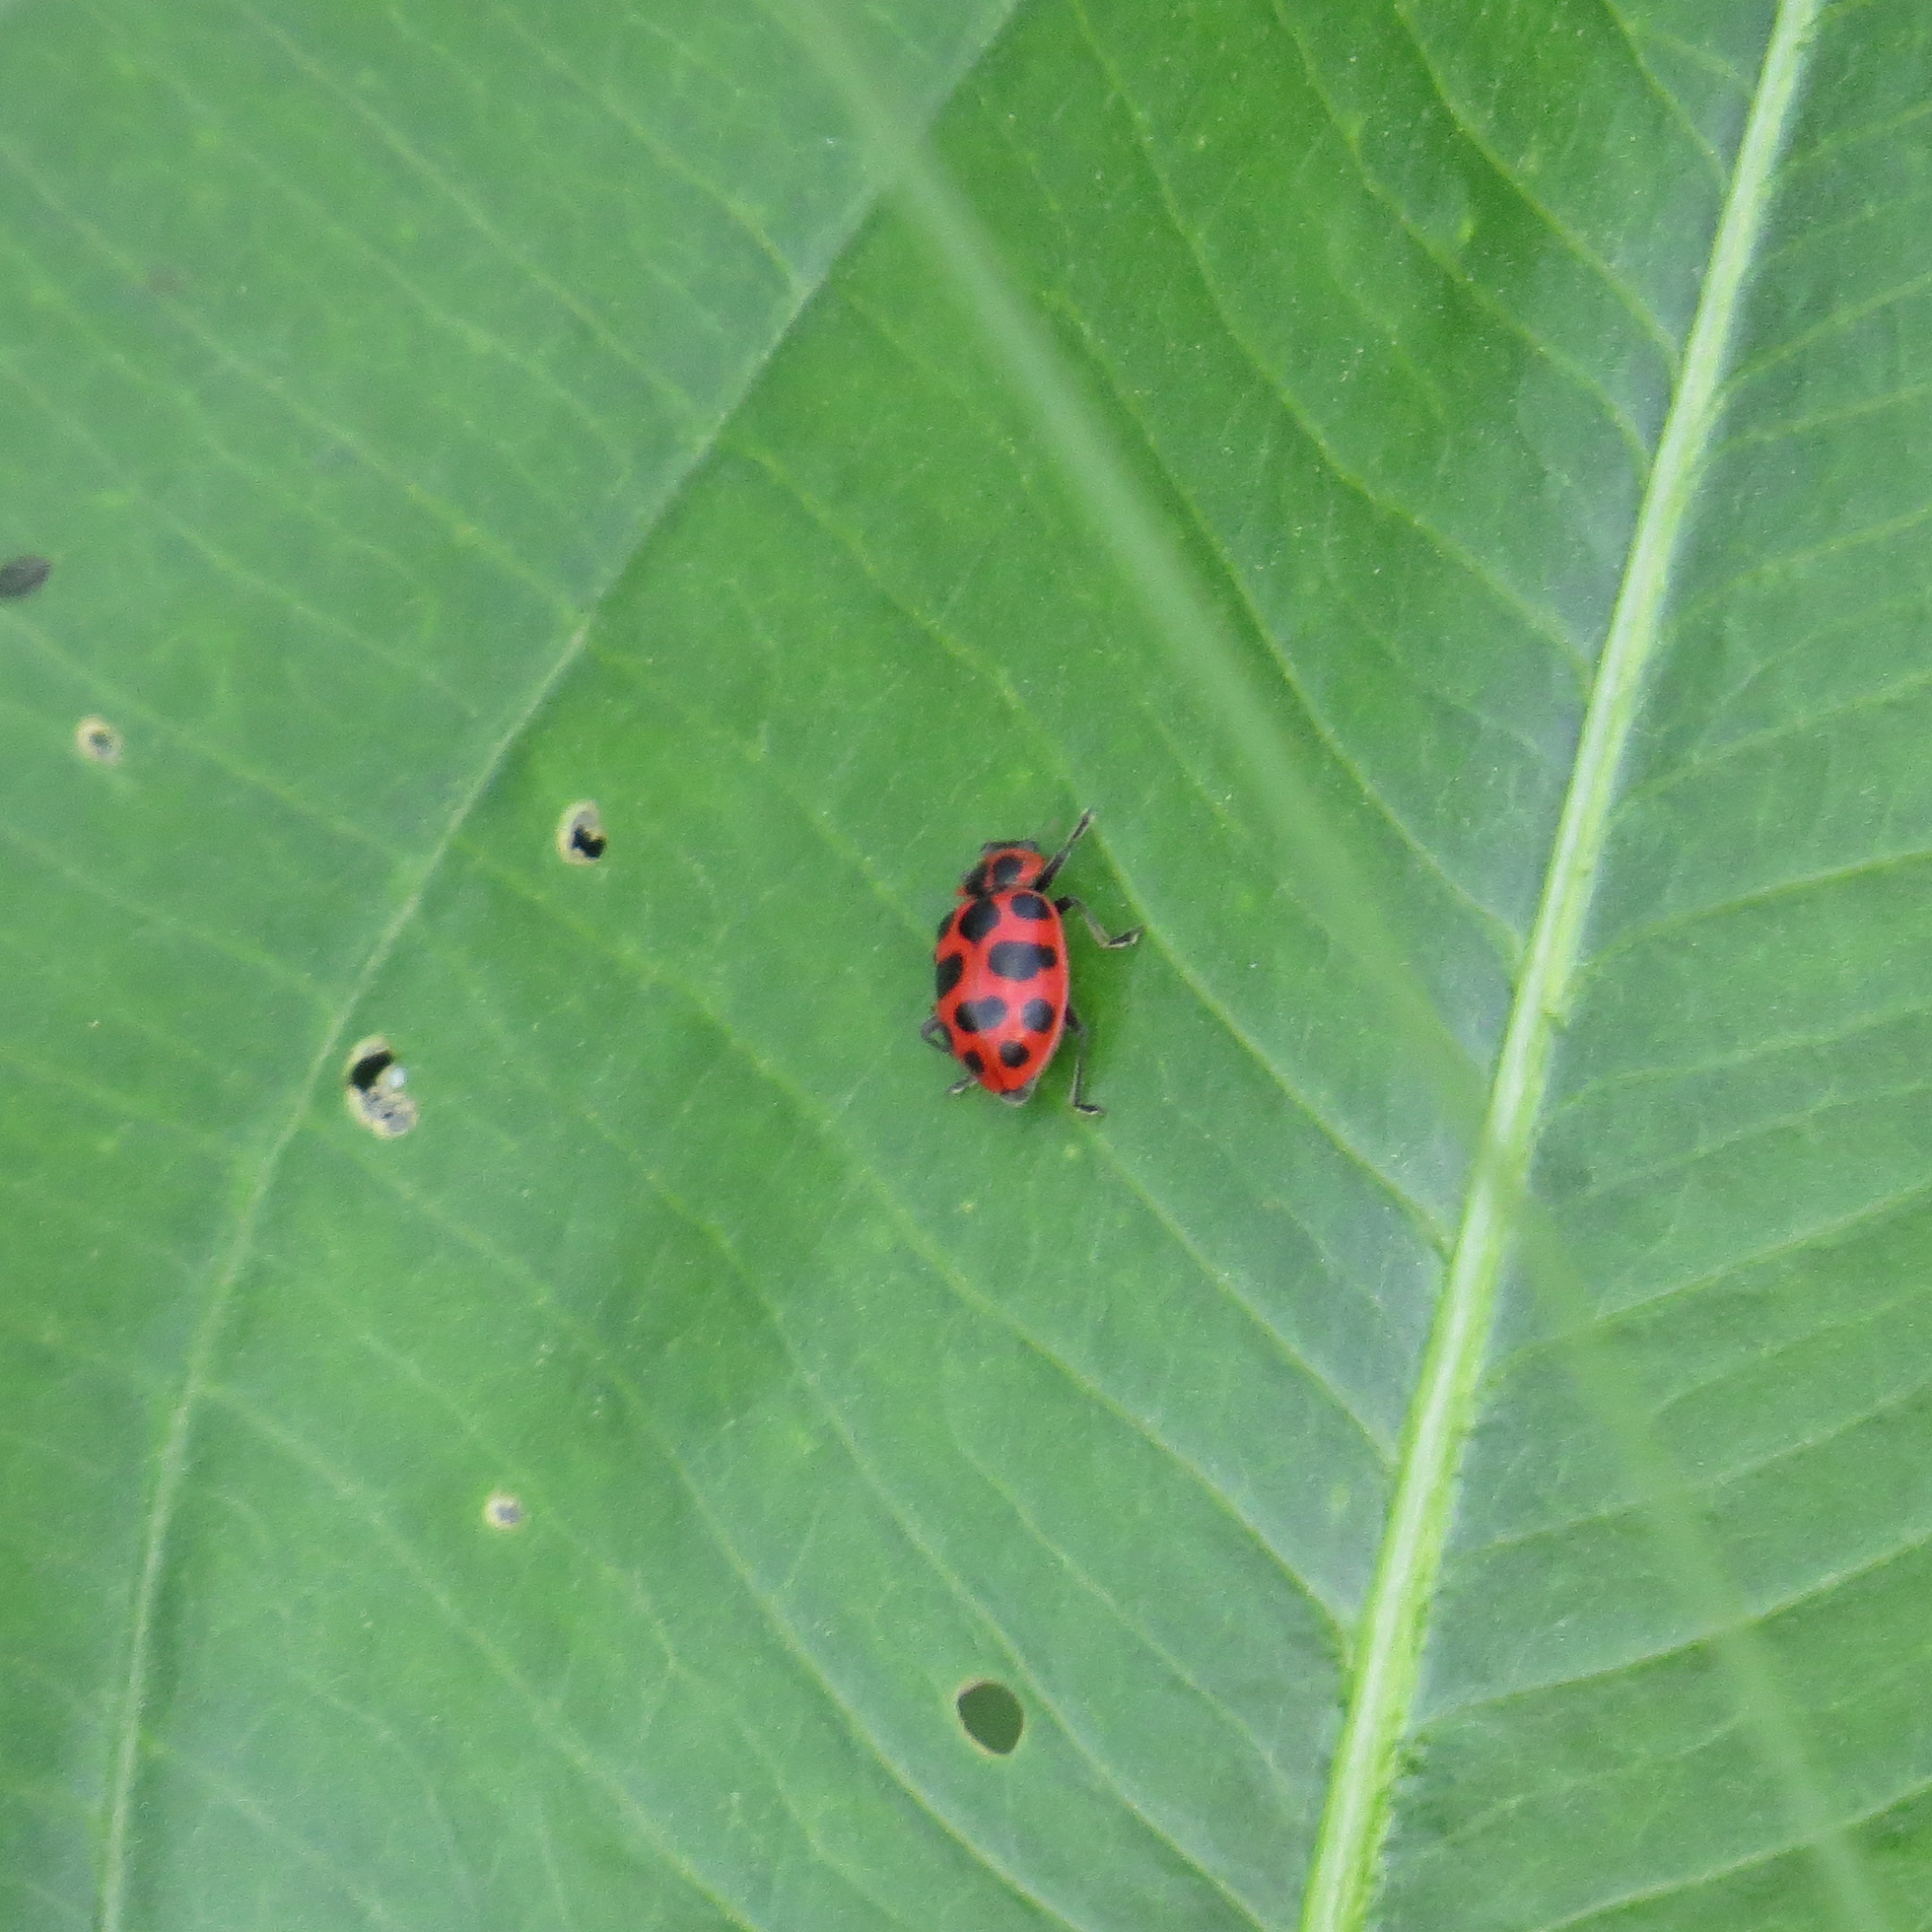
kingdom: Animalia
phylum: Arthropoda
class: Insecta
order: Coleoptera
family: Coccinellidae
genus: Coleomegilla
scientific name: Coleomegilla maculata
